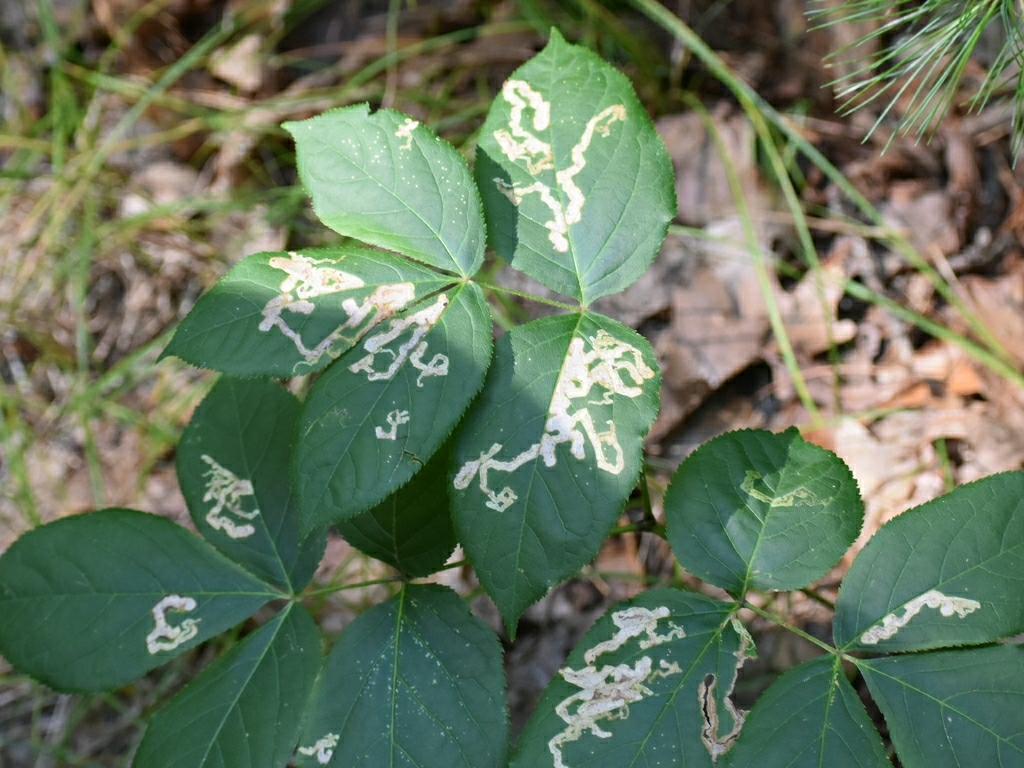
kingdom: Plantae
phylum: Tracheophyta
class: Magnoliopsida
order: Apiales
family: Araliaceae
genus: Aralia
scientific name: Aralia nudicaulis
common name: Wild sarsaparilla
